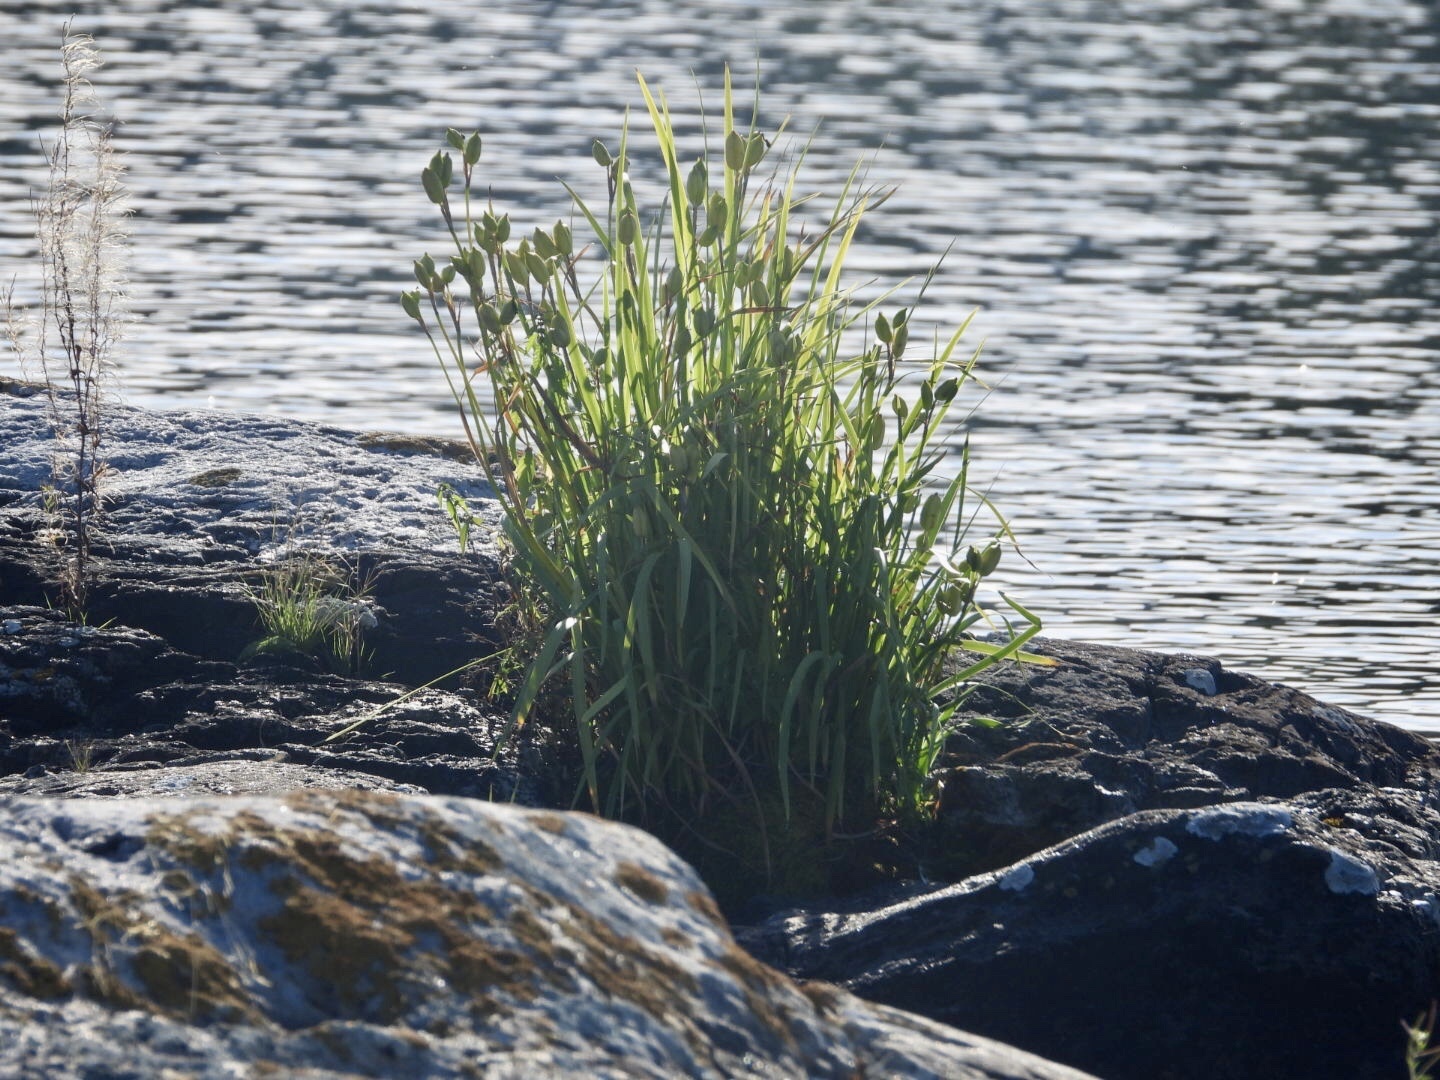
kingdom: Plantae
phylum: Tracheophyta
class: Liliopsida
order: Asparagales
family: Iridaceae
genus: Iris
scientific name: Iris versicolor
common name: Purple iris
